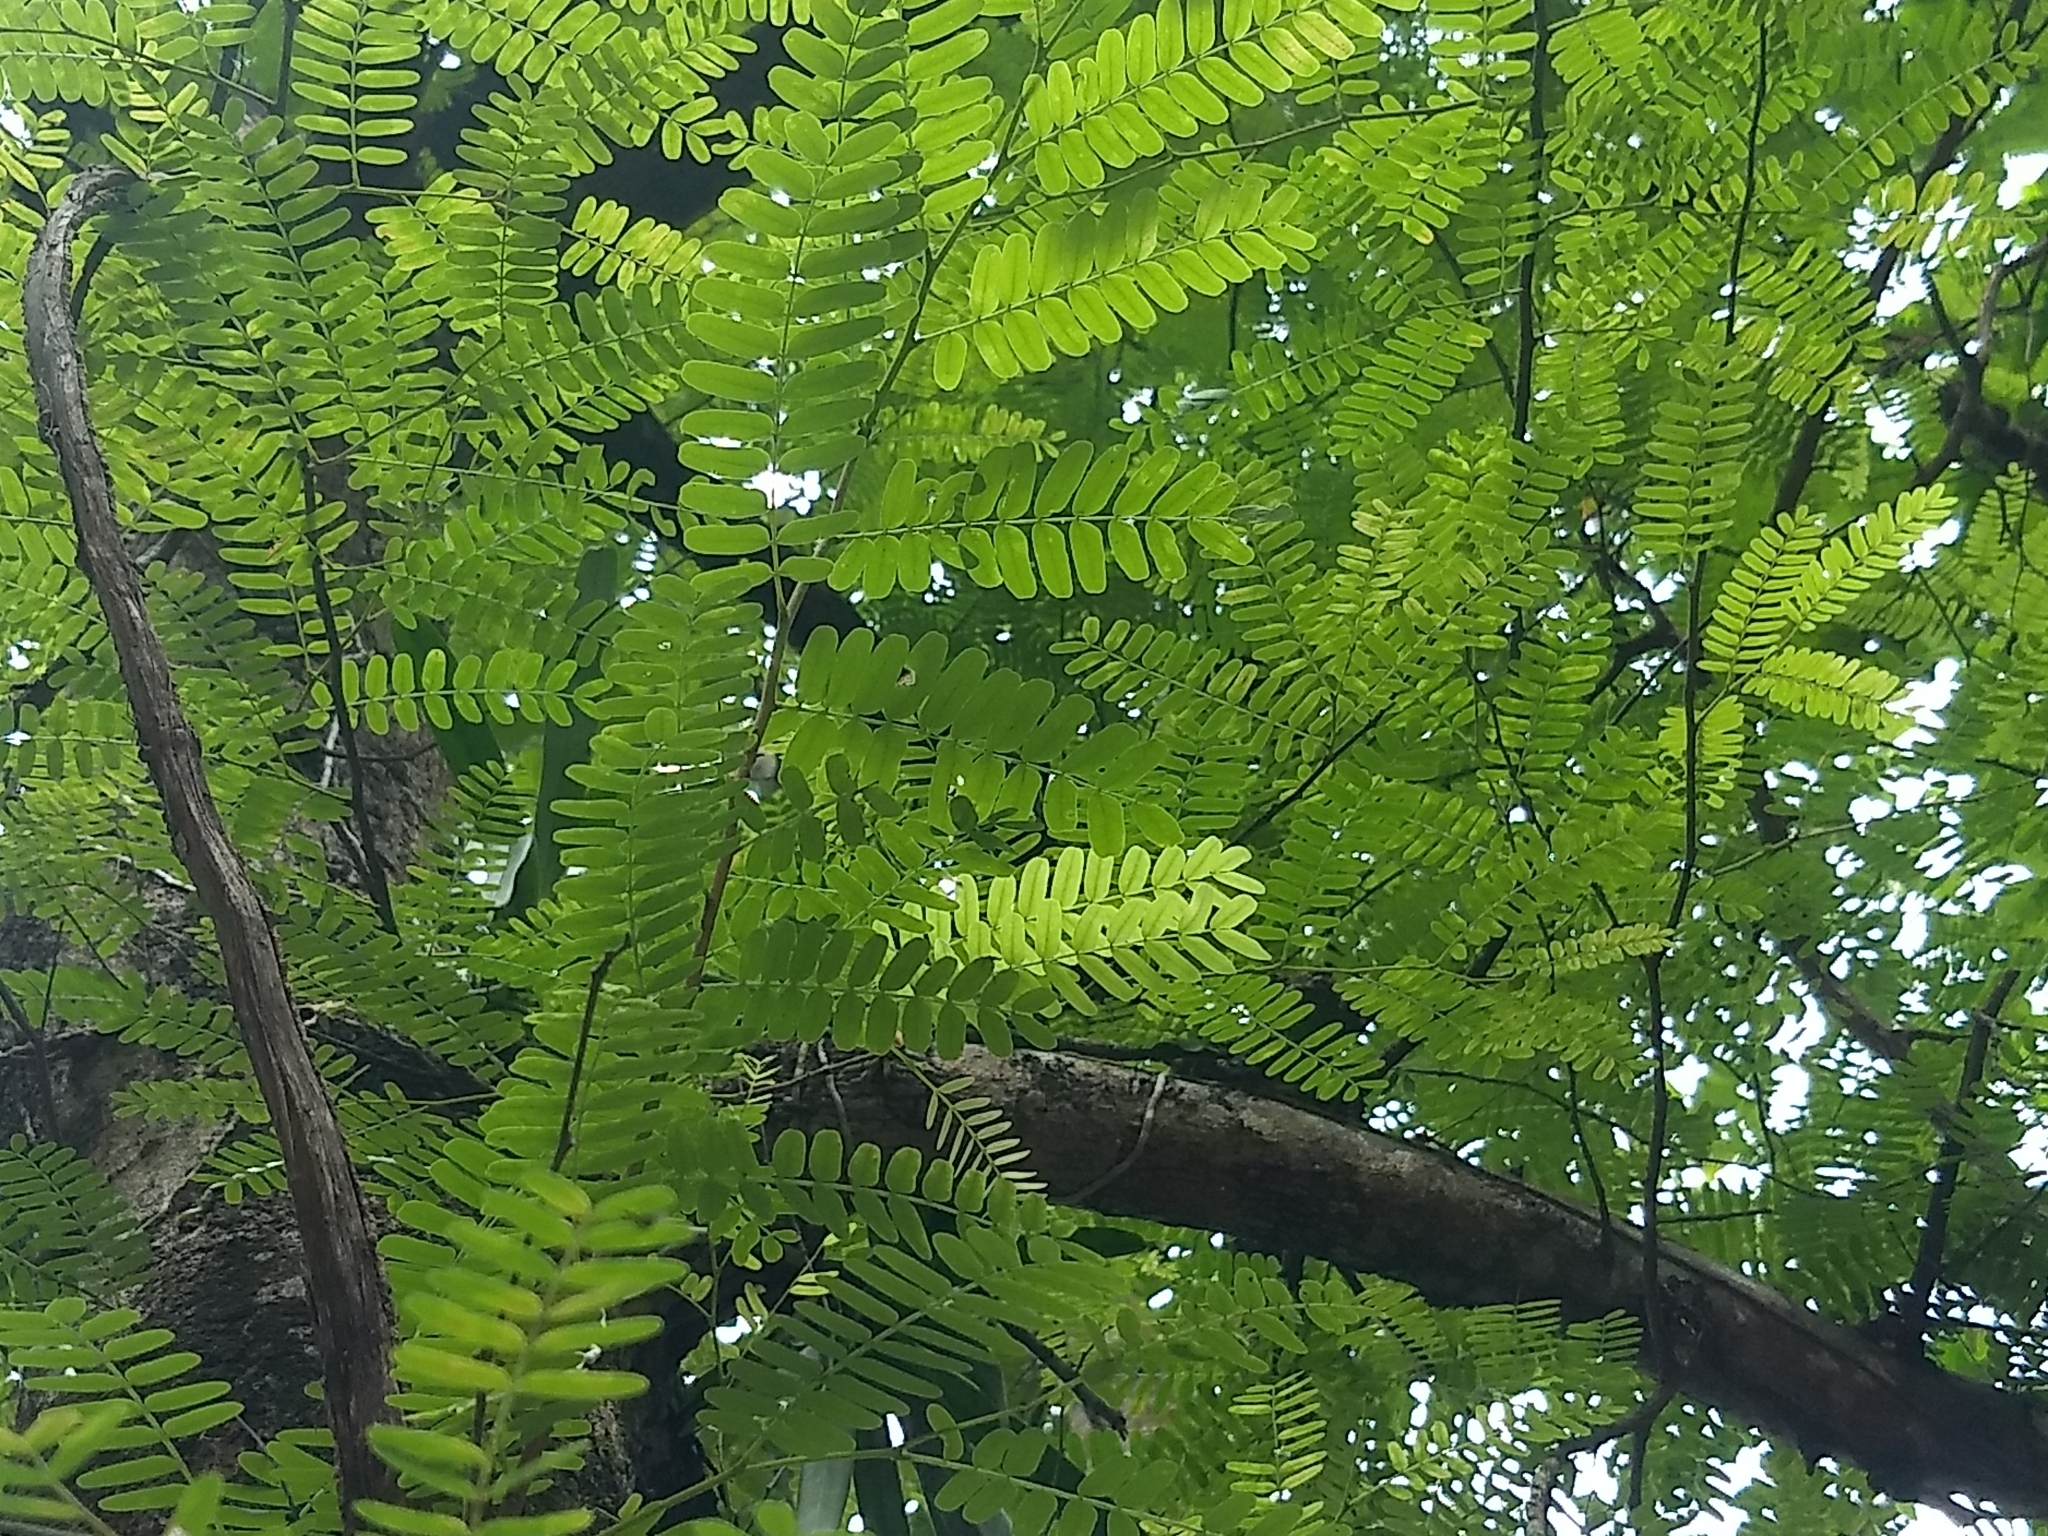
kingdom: Plantae
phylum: Tracheophyta
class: Magnoliopsida
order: Fabales
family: Fabaceae
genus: Tamarindus
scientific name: Tamarindus indica
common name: Tamarind
